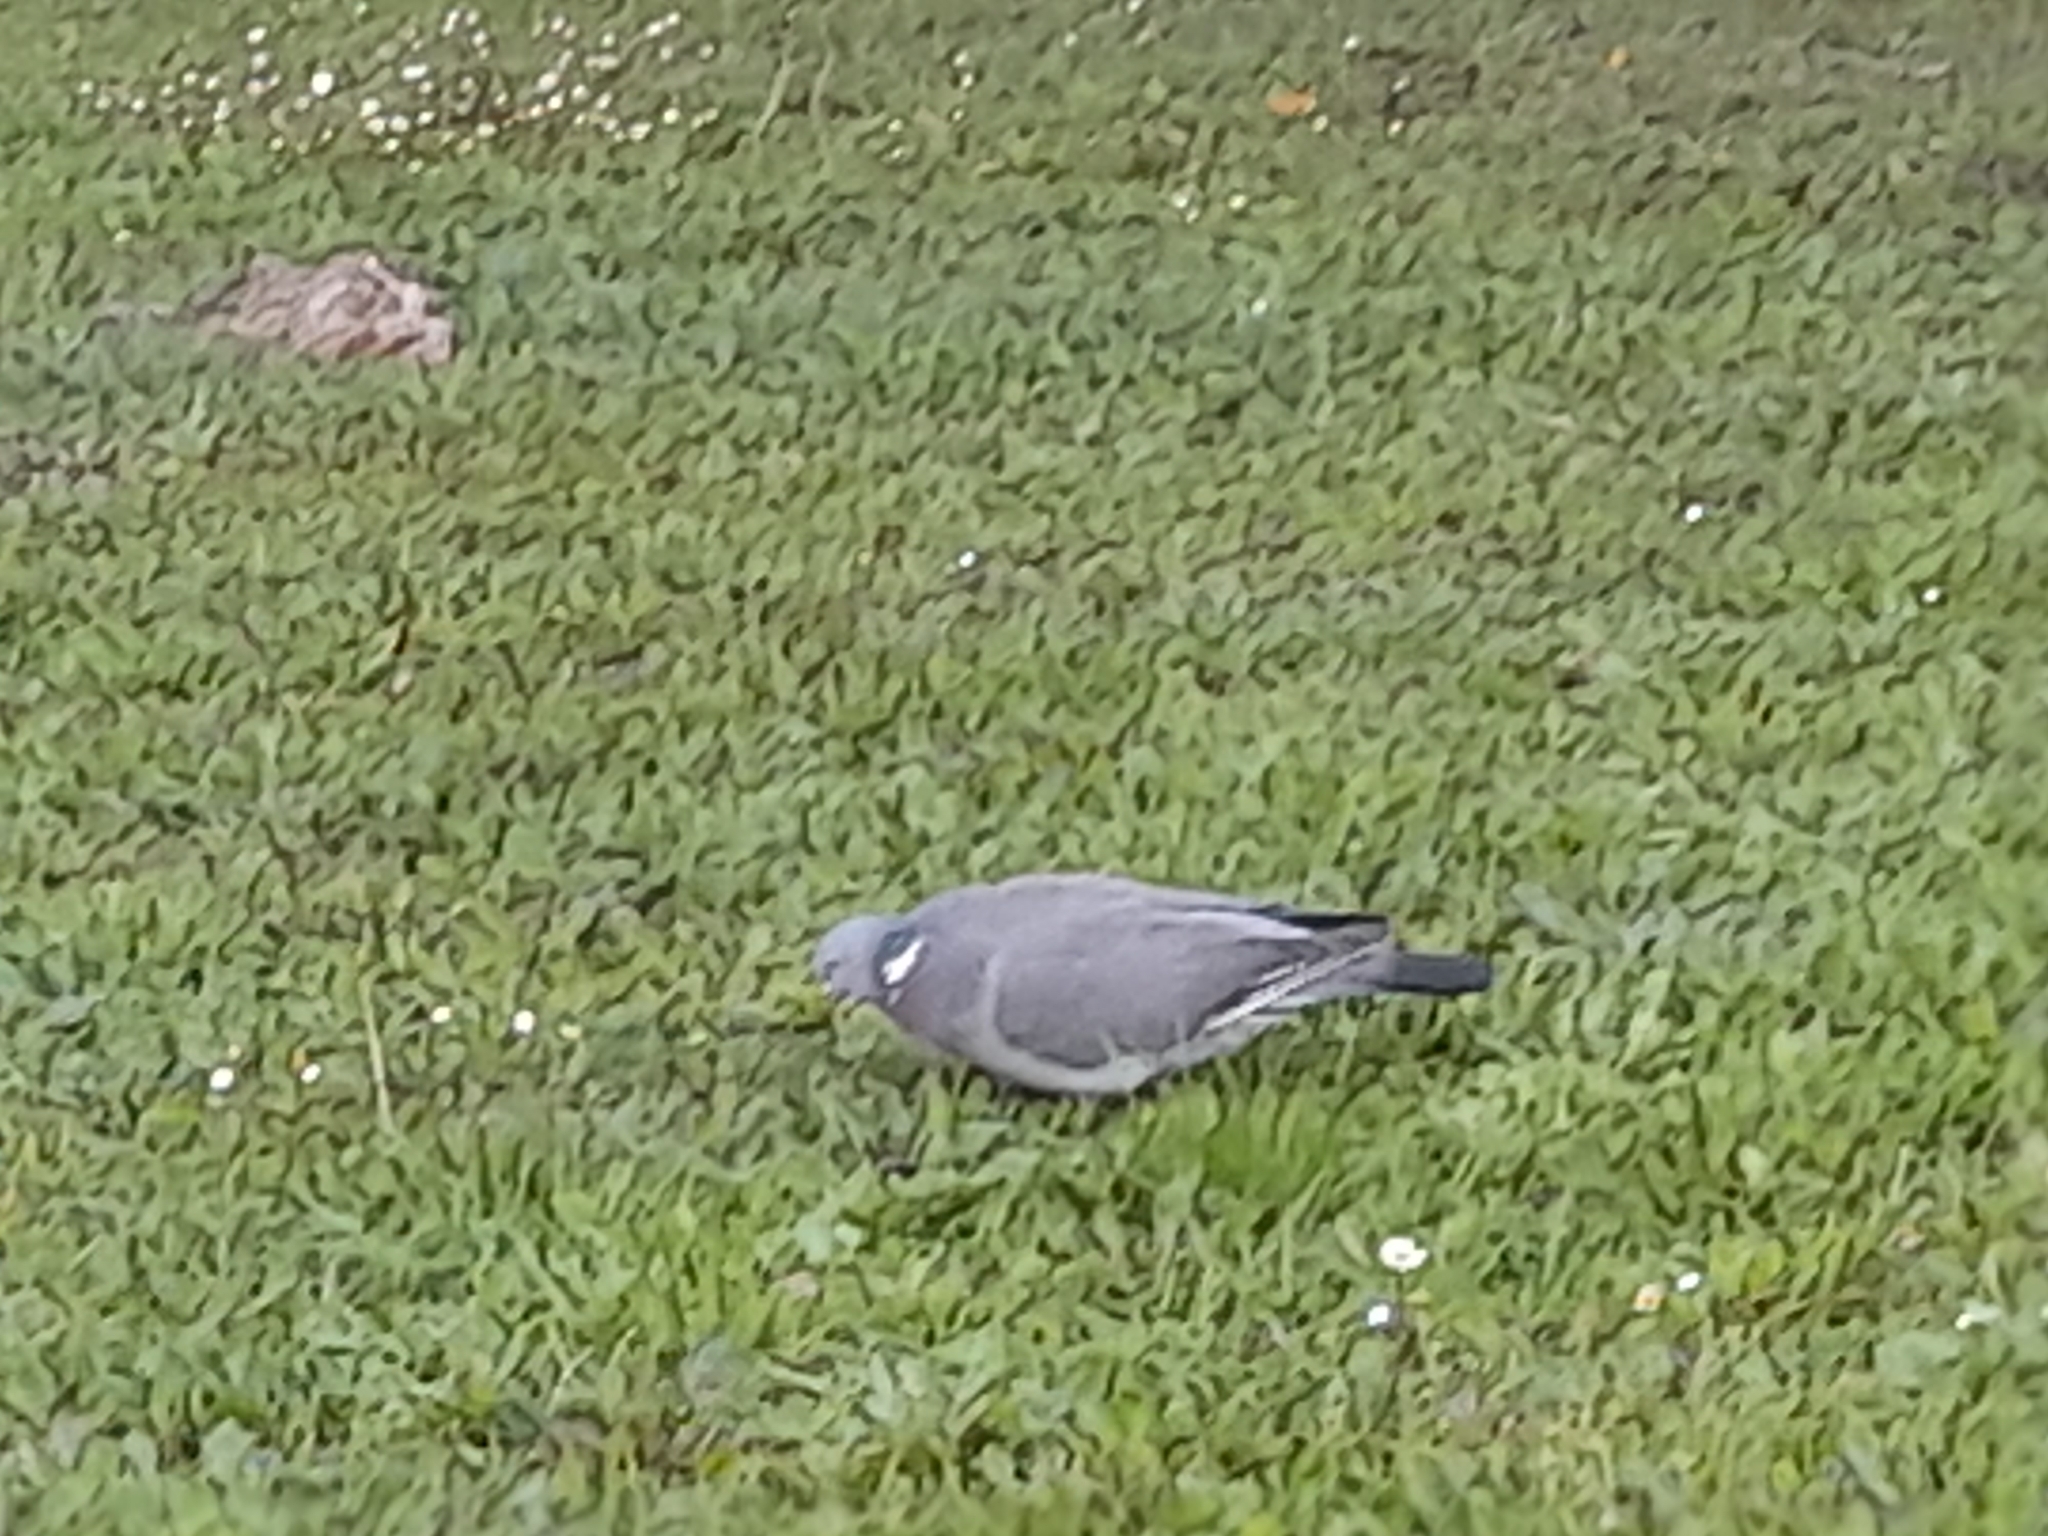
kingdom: Animalia
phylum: Chordata
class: Aves
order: Columbiformes
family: Columbidae
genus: Columba
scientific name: Columba palumbus
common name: Common wood pigeon
